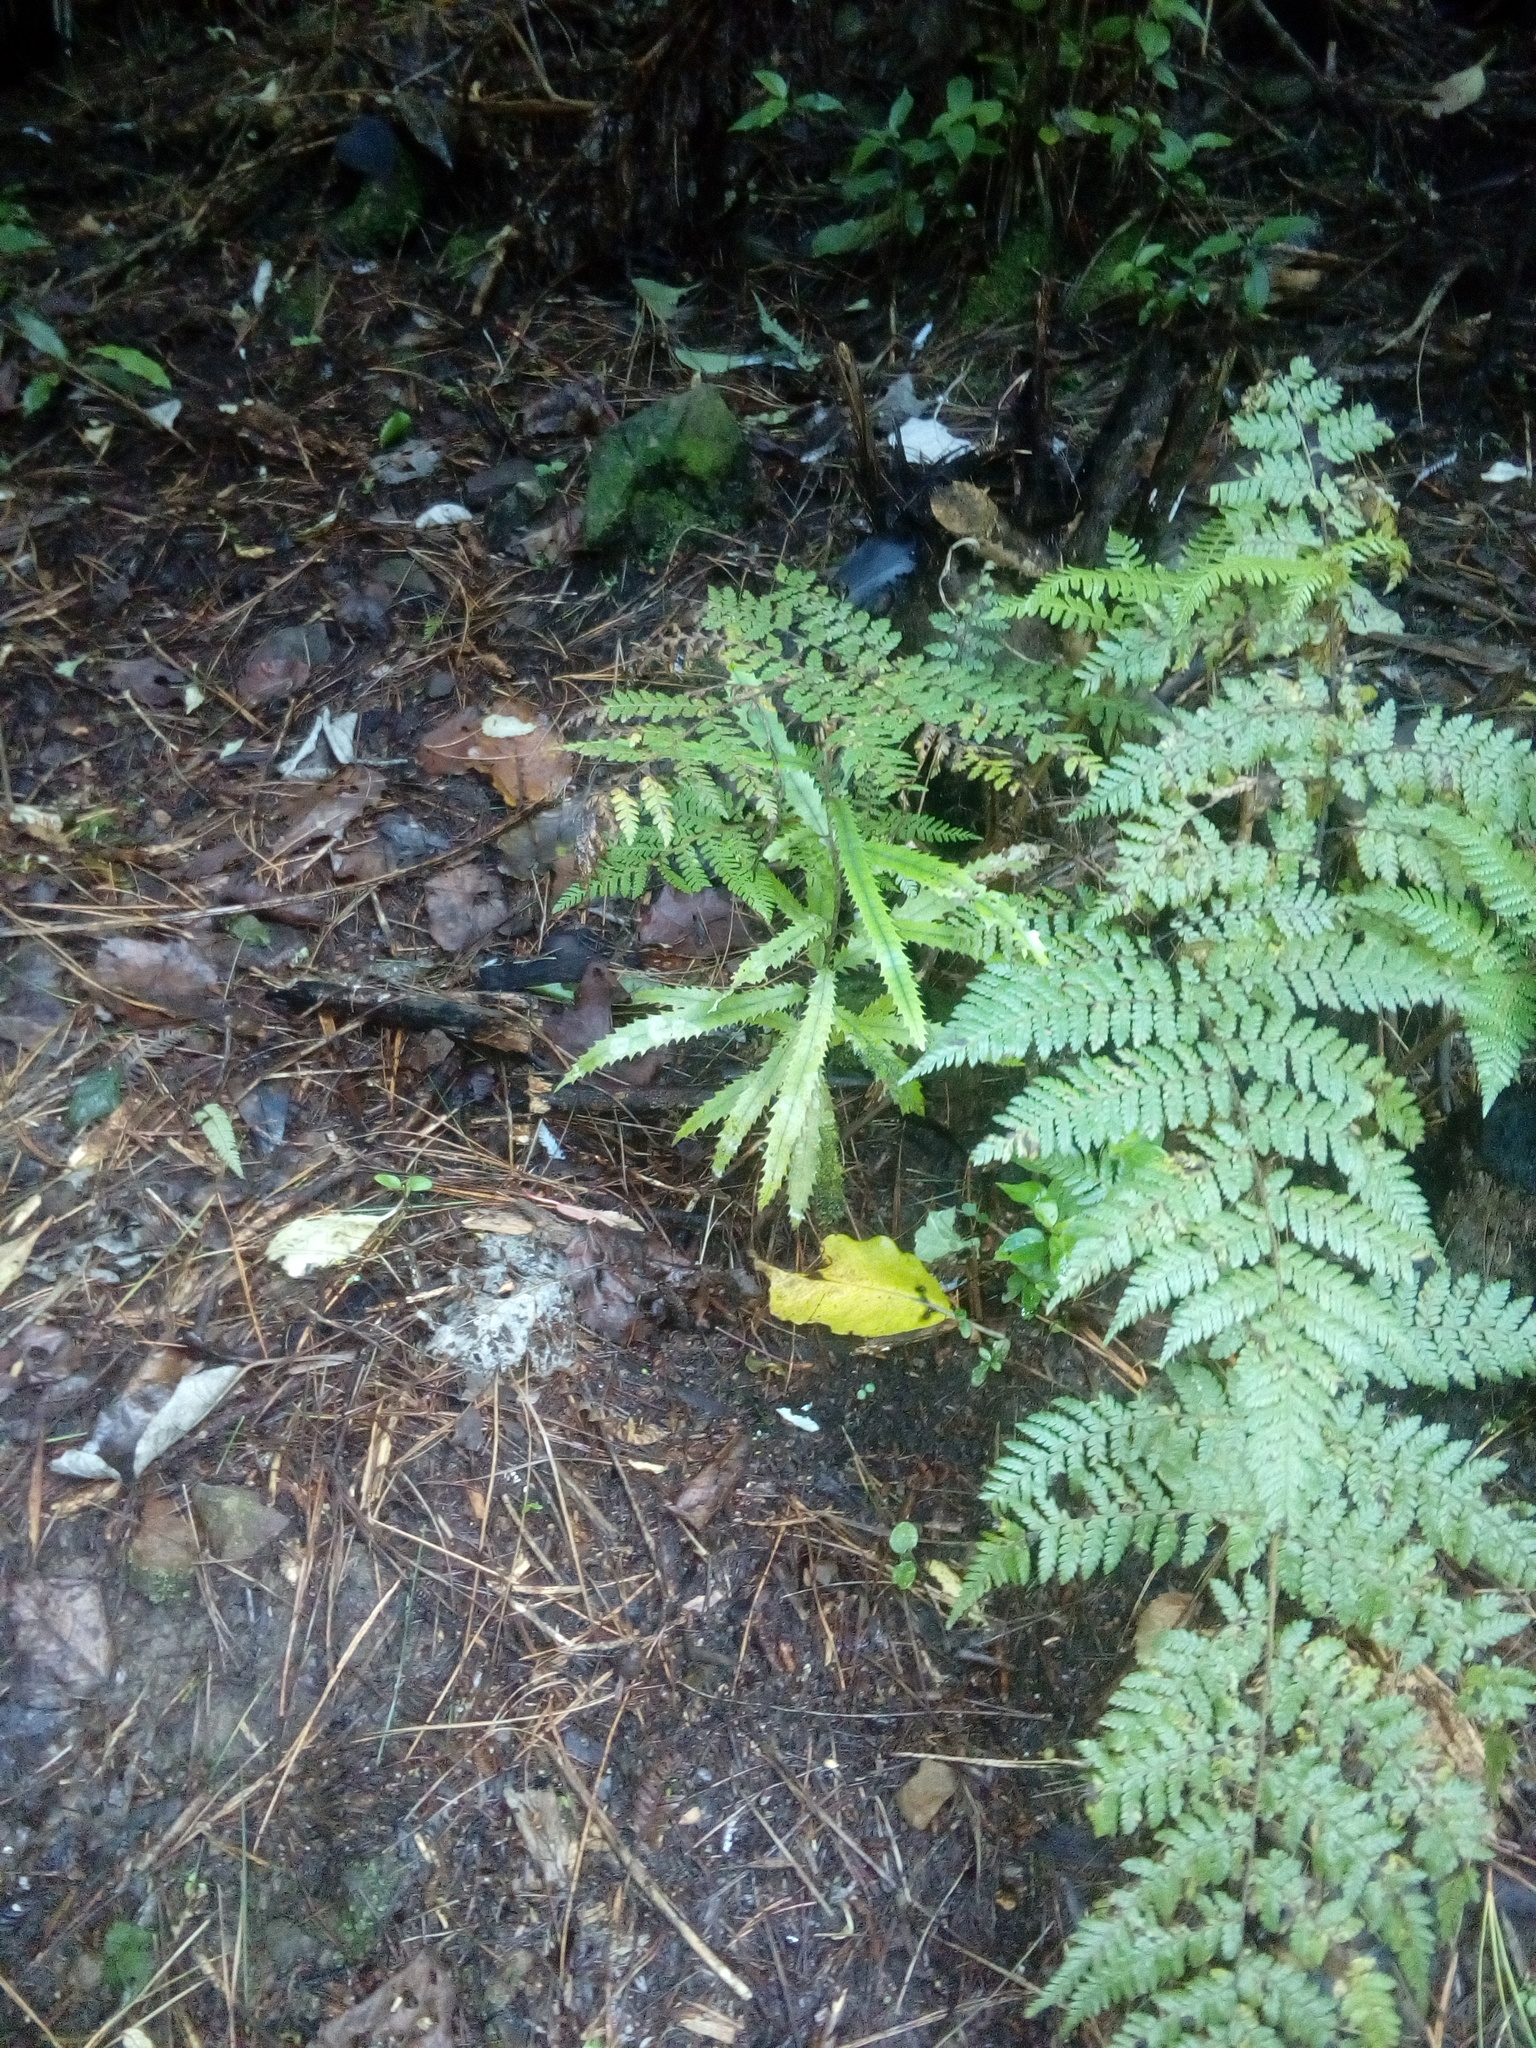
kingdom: Plantae
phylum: Tracheophyta
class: Magnoliopsida
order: Proteales
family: Proteaceae
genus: Knightia
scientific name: Knightia excelsa
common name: New zealand-honeysuckle
